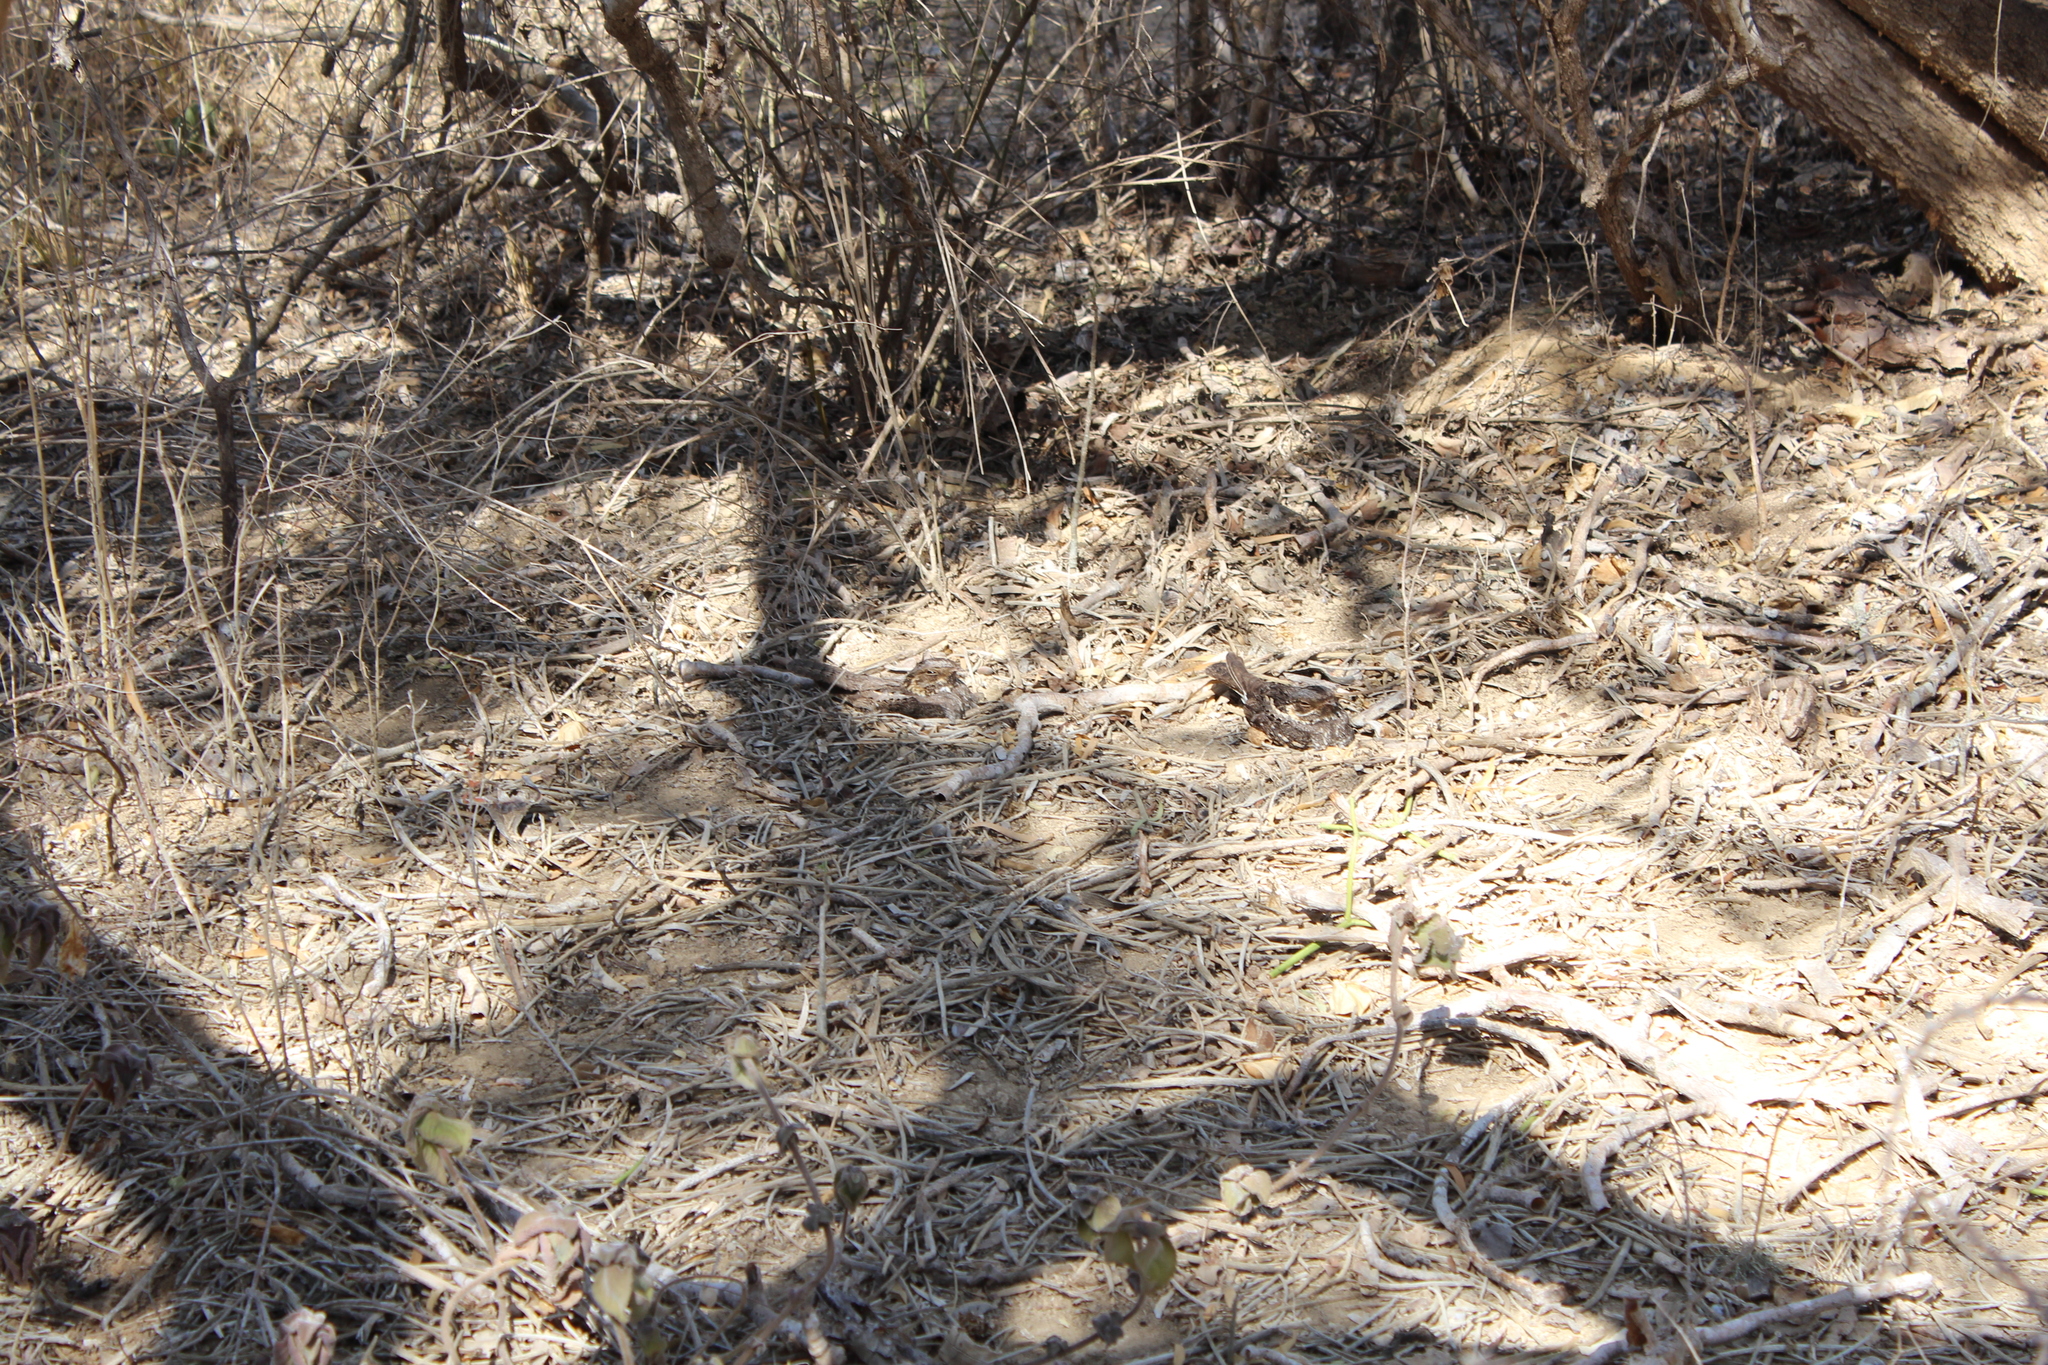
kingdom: Animalia
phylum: Chordata
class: Aves
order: Caprimulgiformes
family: Caprimulgidae
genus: Caprimulgus
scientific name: Caprimulgus madagascariensis
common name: Madagascar nightjar
